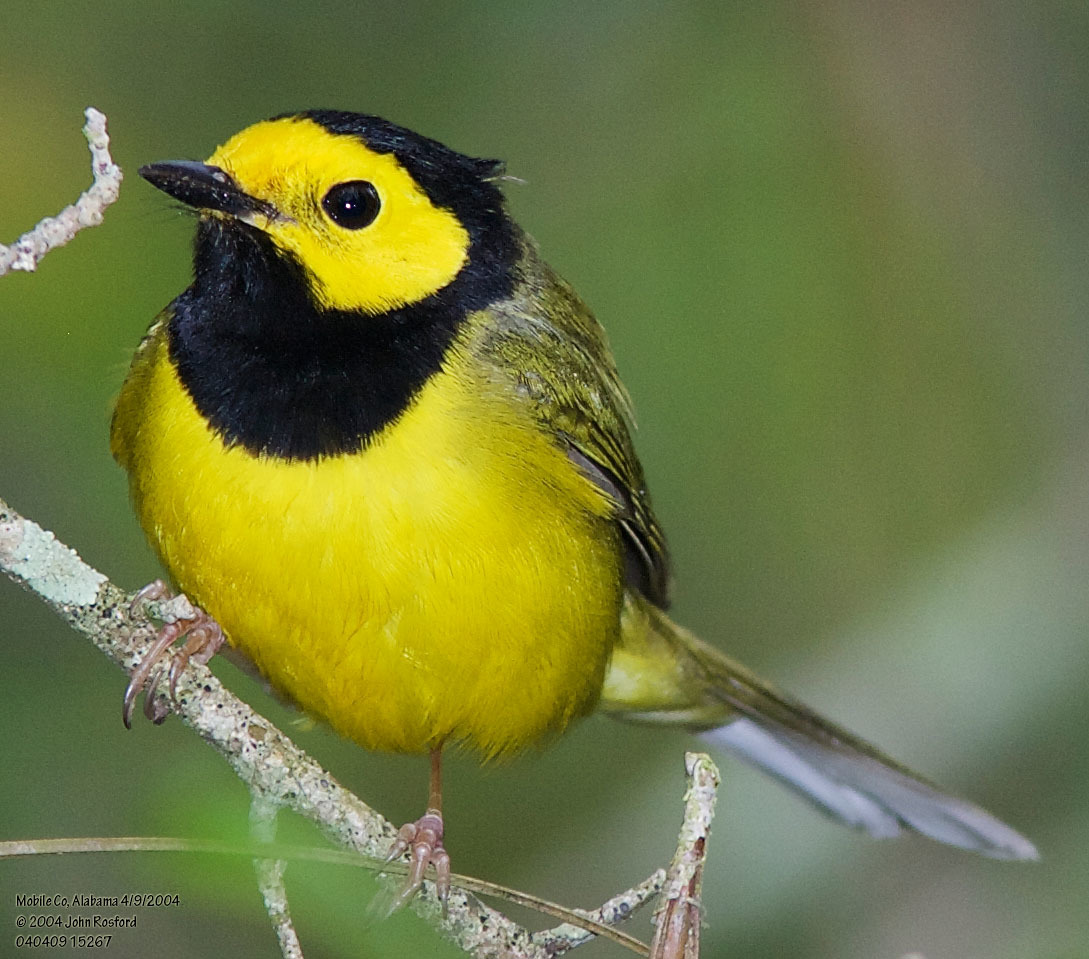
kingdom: Animalia
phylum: Chordata
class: Aves
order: Passeriformes
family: Parulidae
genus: Setophaga
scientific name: Setophaga citrina
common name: Hooded warbler
